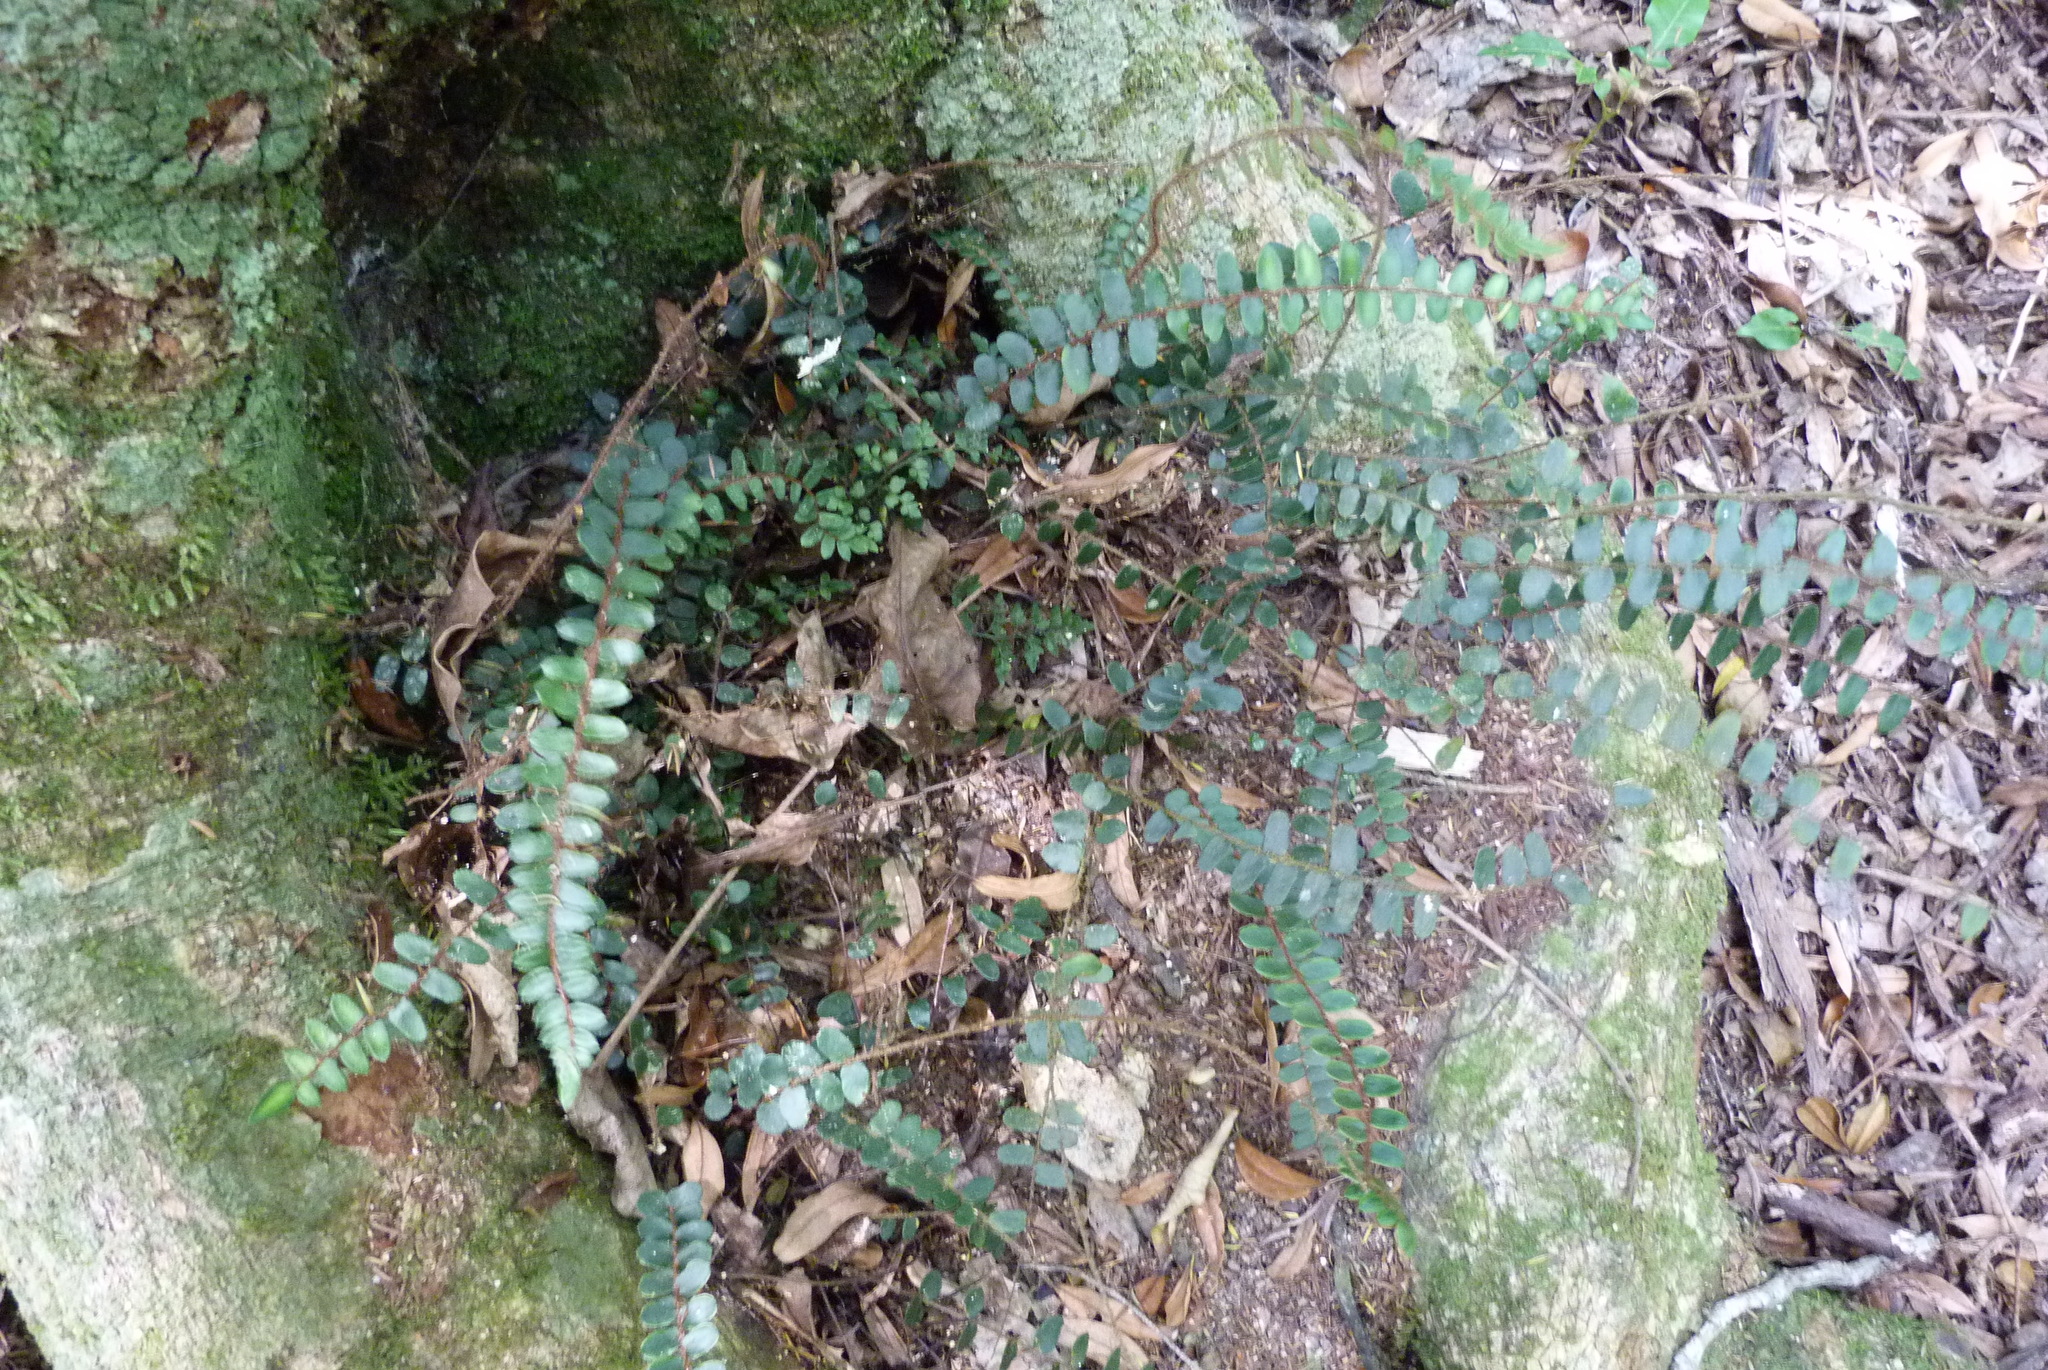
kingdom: Plantae
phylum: Tracheophyta
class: Polypodiopsida
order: Polypodiales
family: Pteridaceae
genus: Pellaea
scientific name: Pellaea rotundifolia
